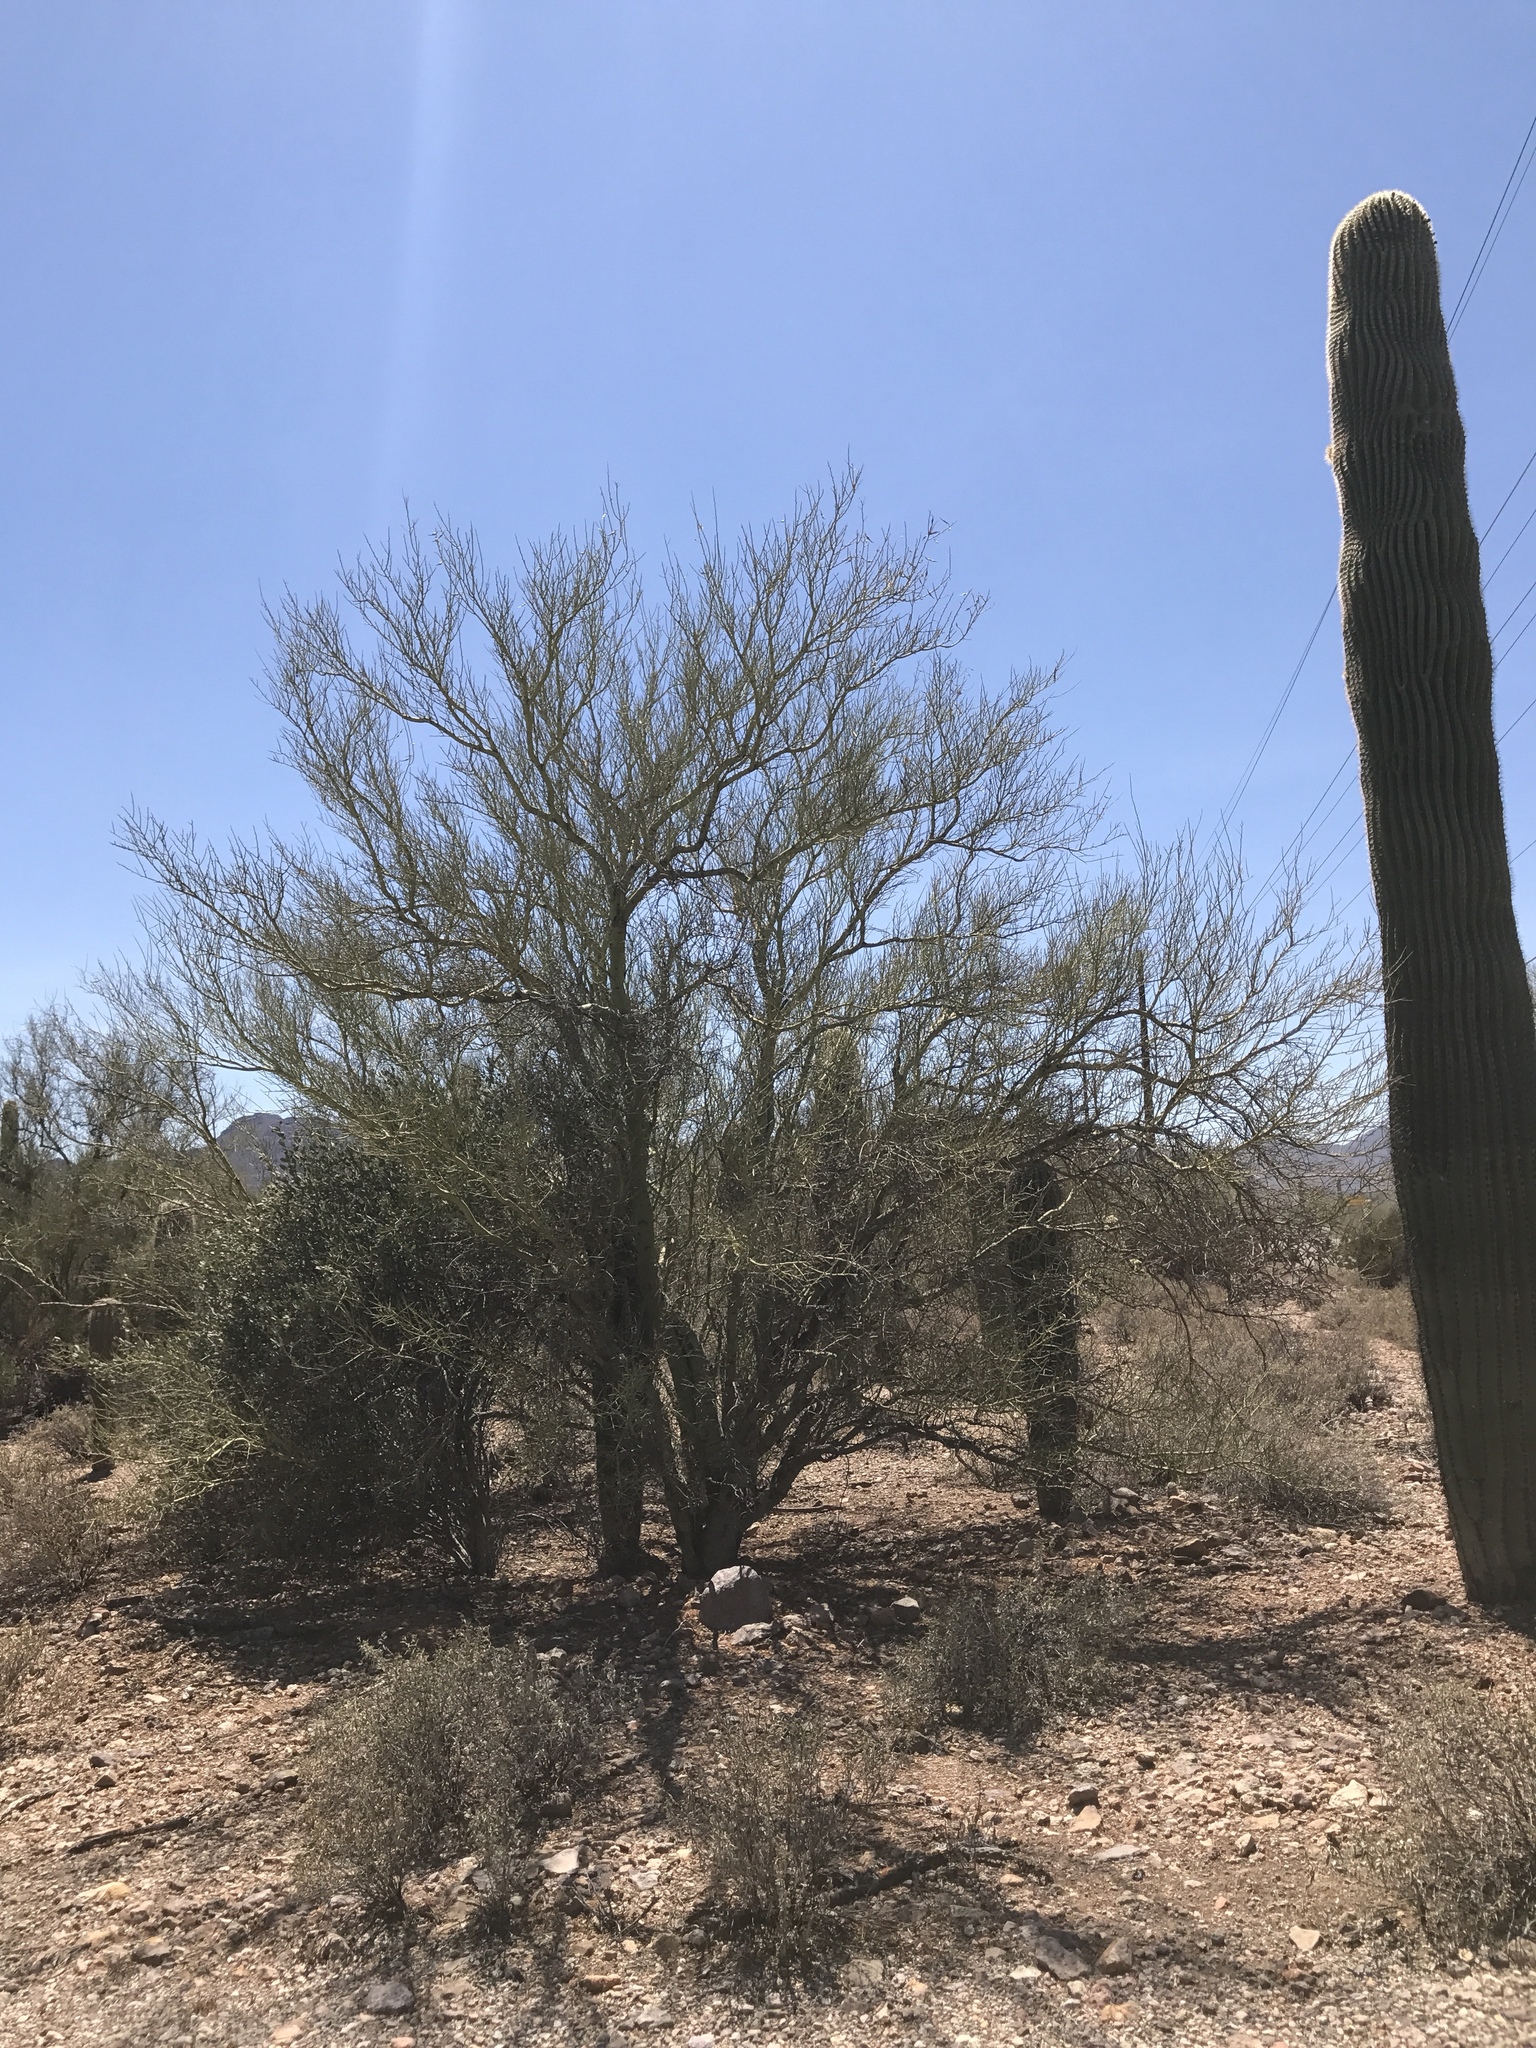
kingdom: Plantae
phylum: Tracheophyta
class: Magnoliopsida
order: Fabales
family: Fabaceae
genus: Parkinsonia
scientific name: Parkinsonia florida
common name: Blue paloverde
